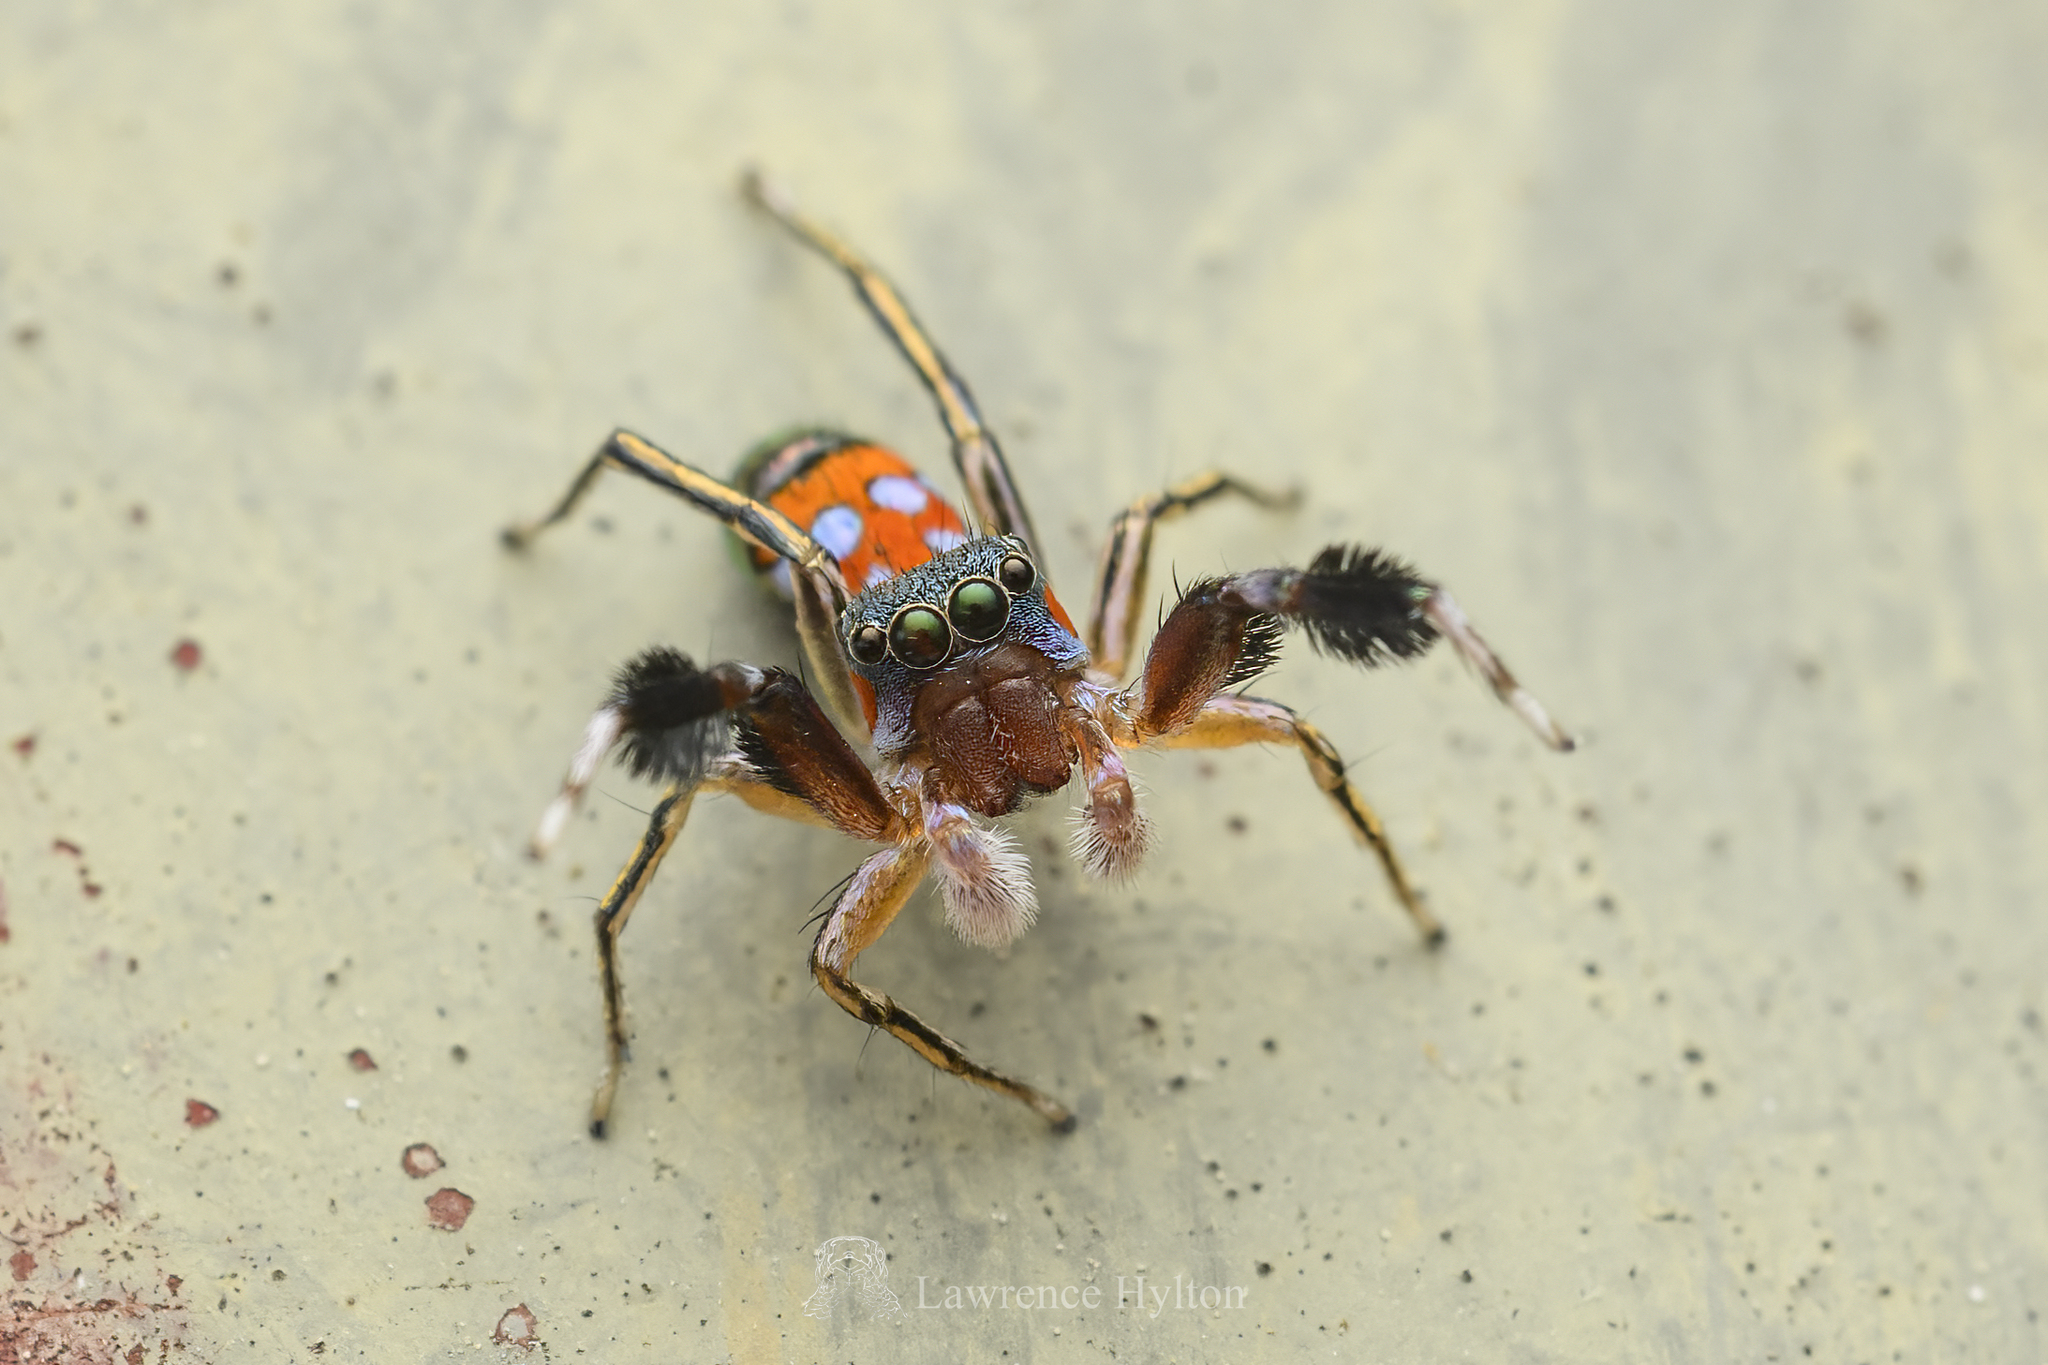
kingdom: Animalia
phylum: Arthropoda
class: Arachnida
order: Araneae
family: Salticidae
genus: Siler
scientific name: Siler collingwoodi
